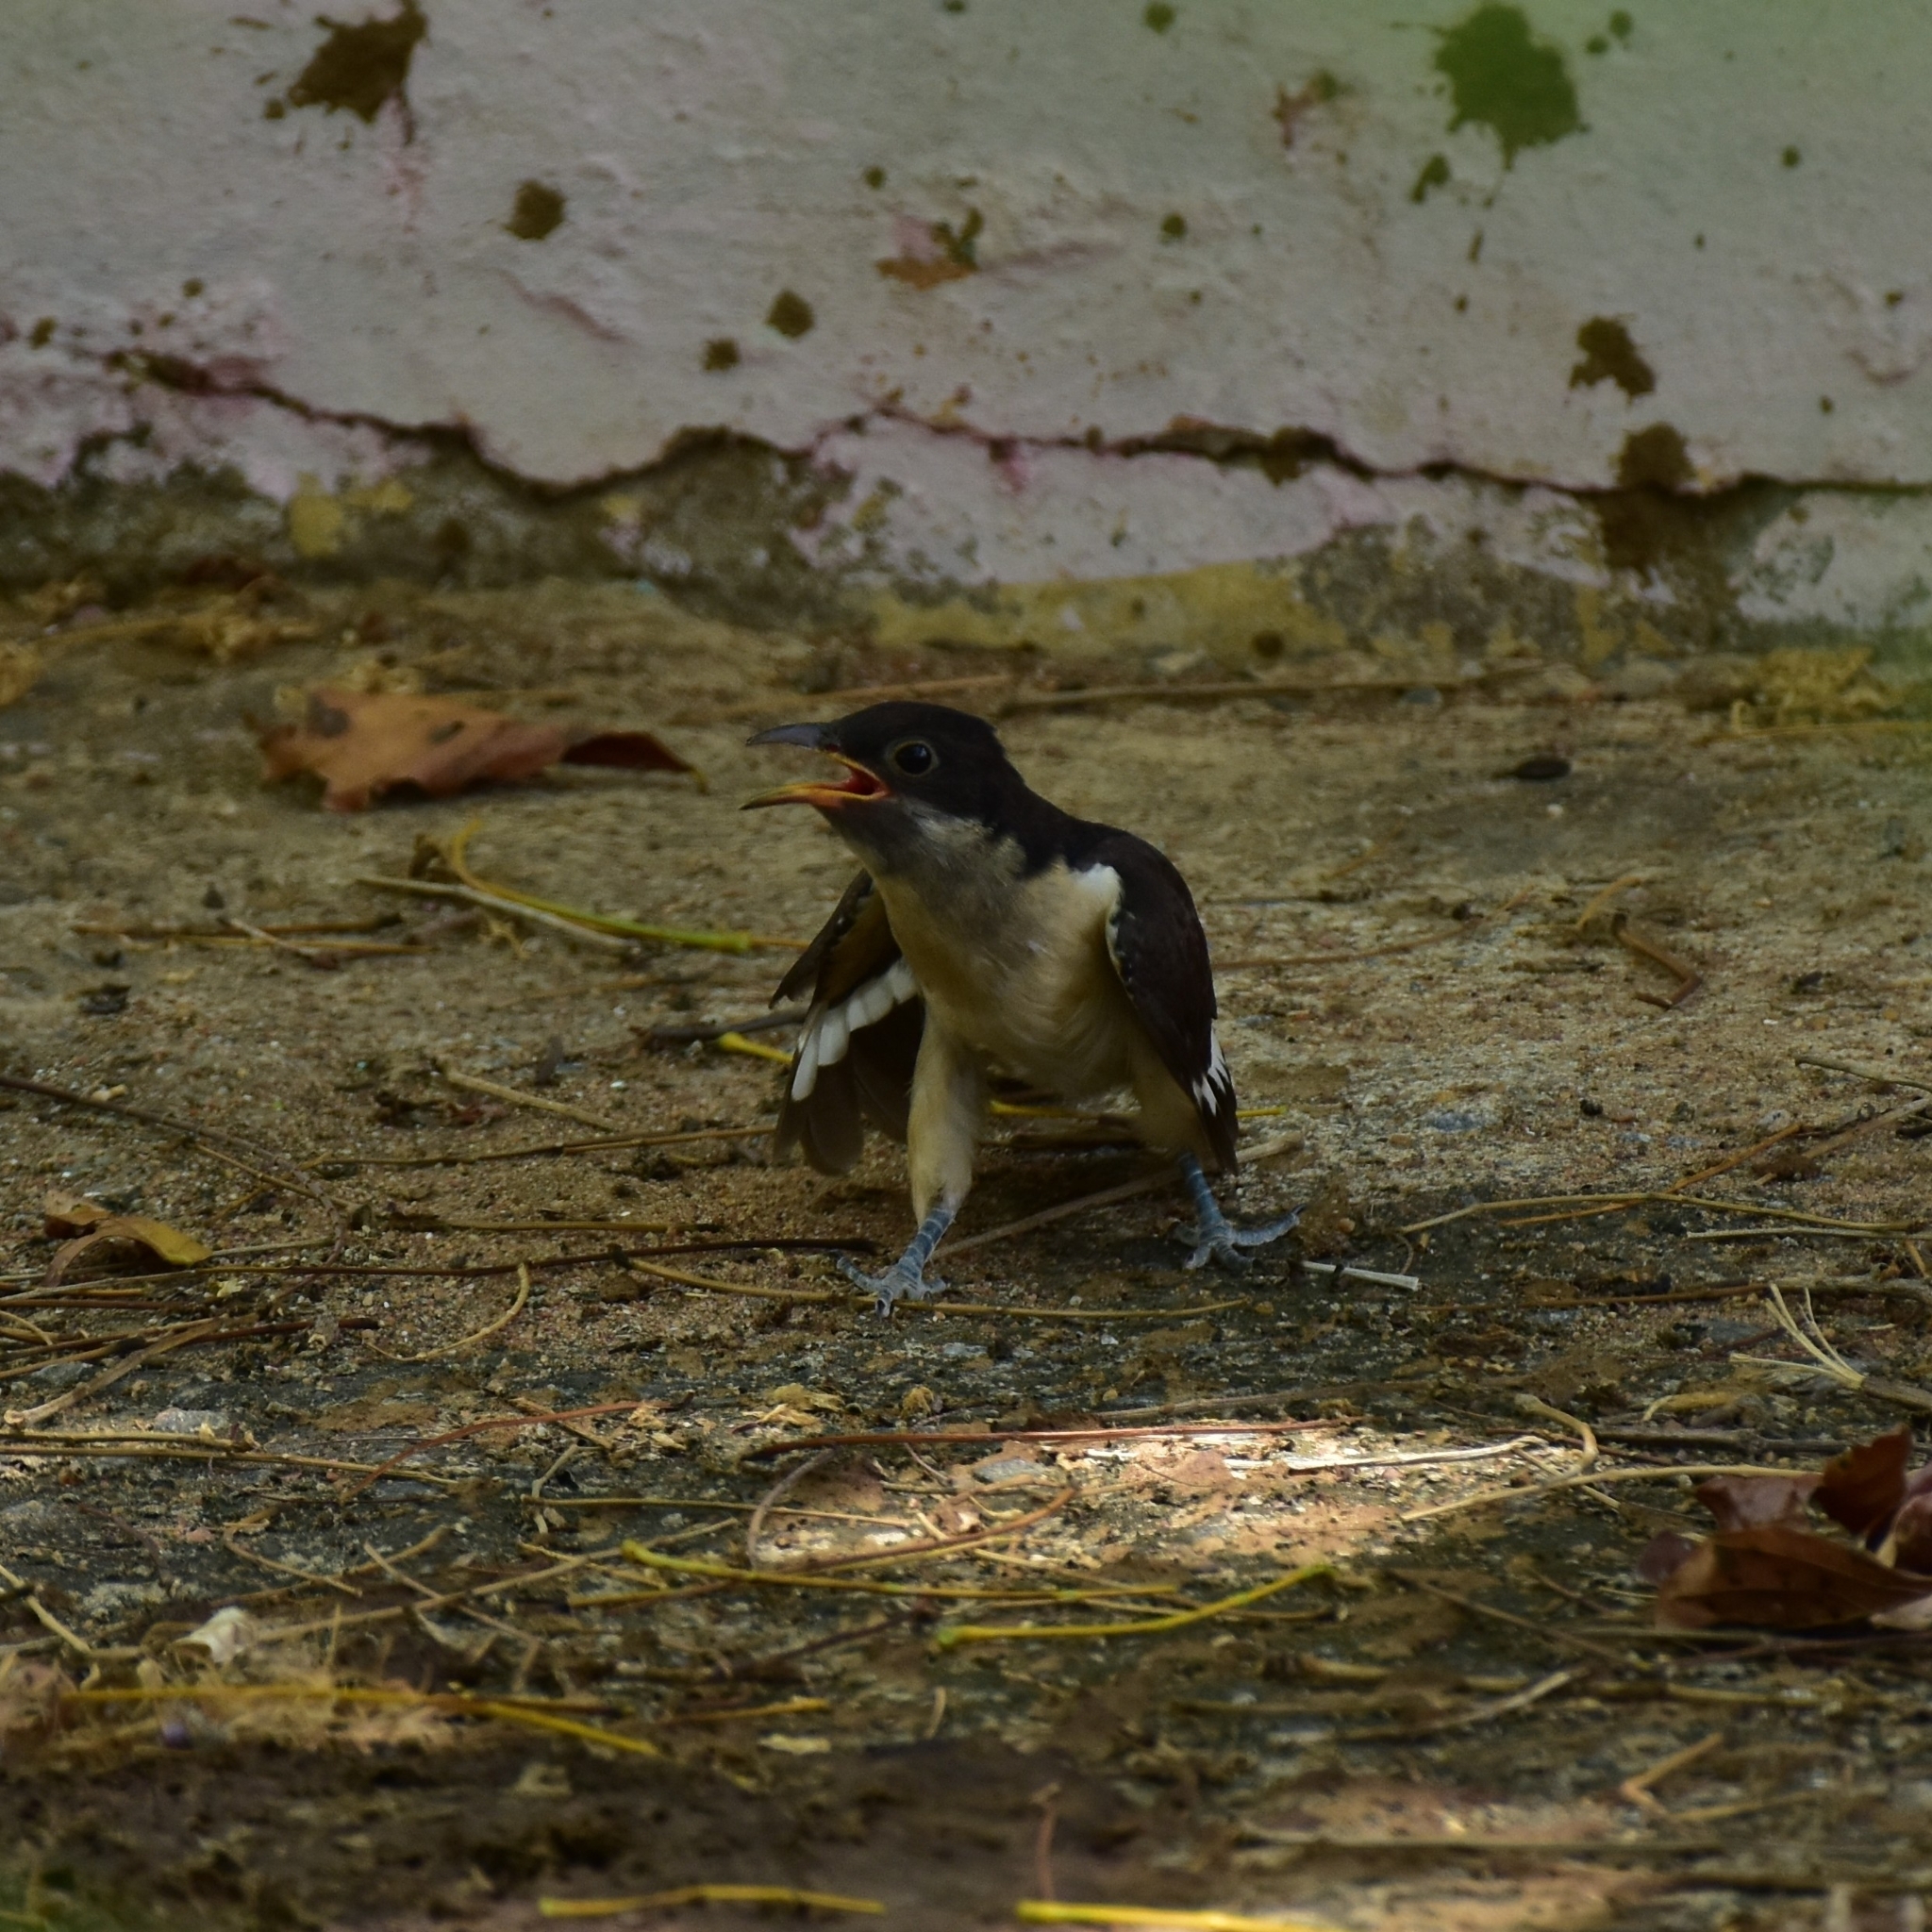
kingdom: Animalia
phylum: Chordata
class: Aves
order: Cuculiformes
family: Cuculidae
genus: Clamator
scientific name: Clamator jacobinus
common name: Jacobin cuckoo
